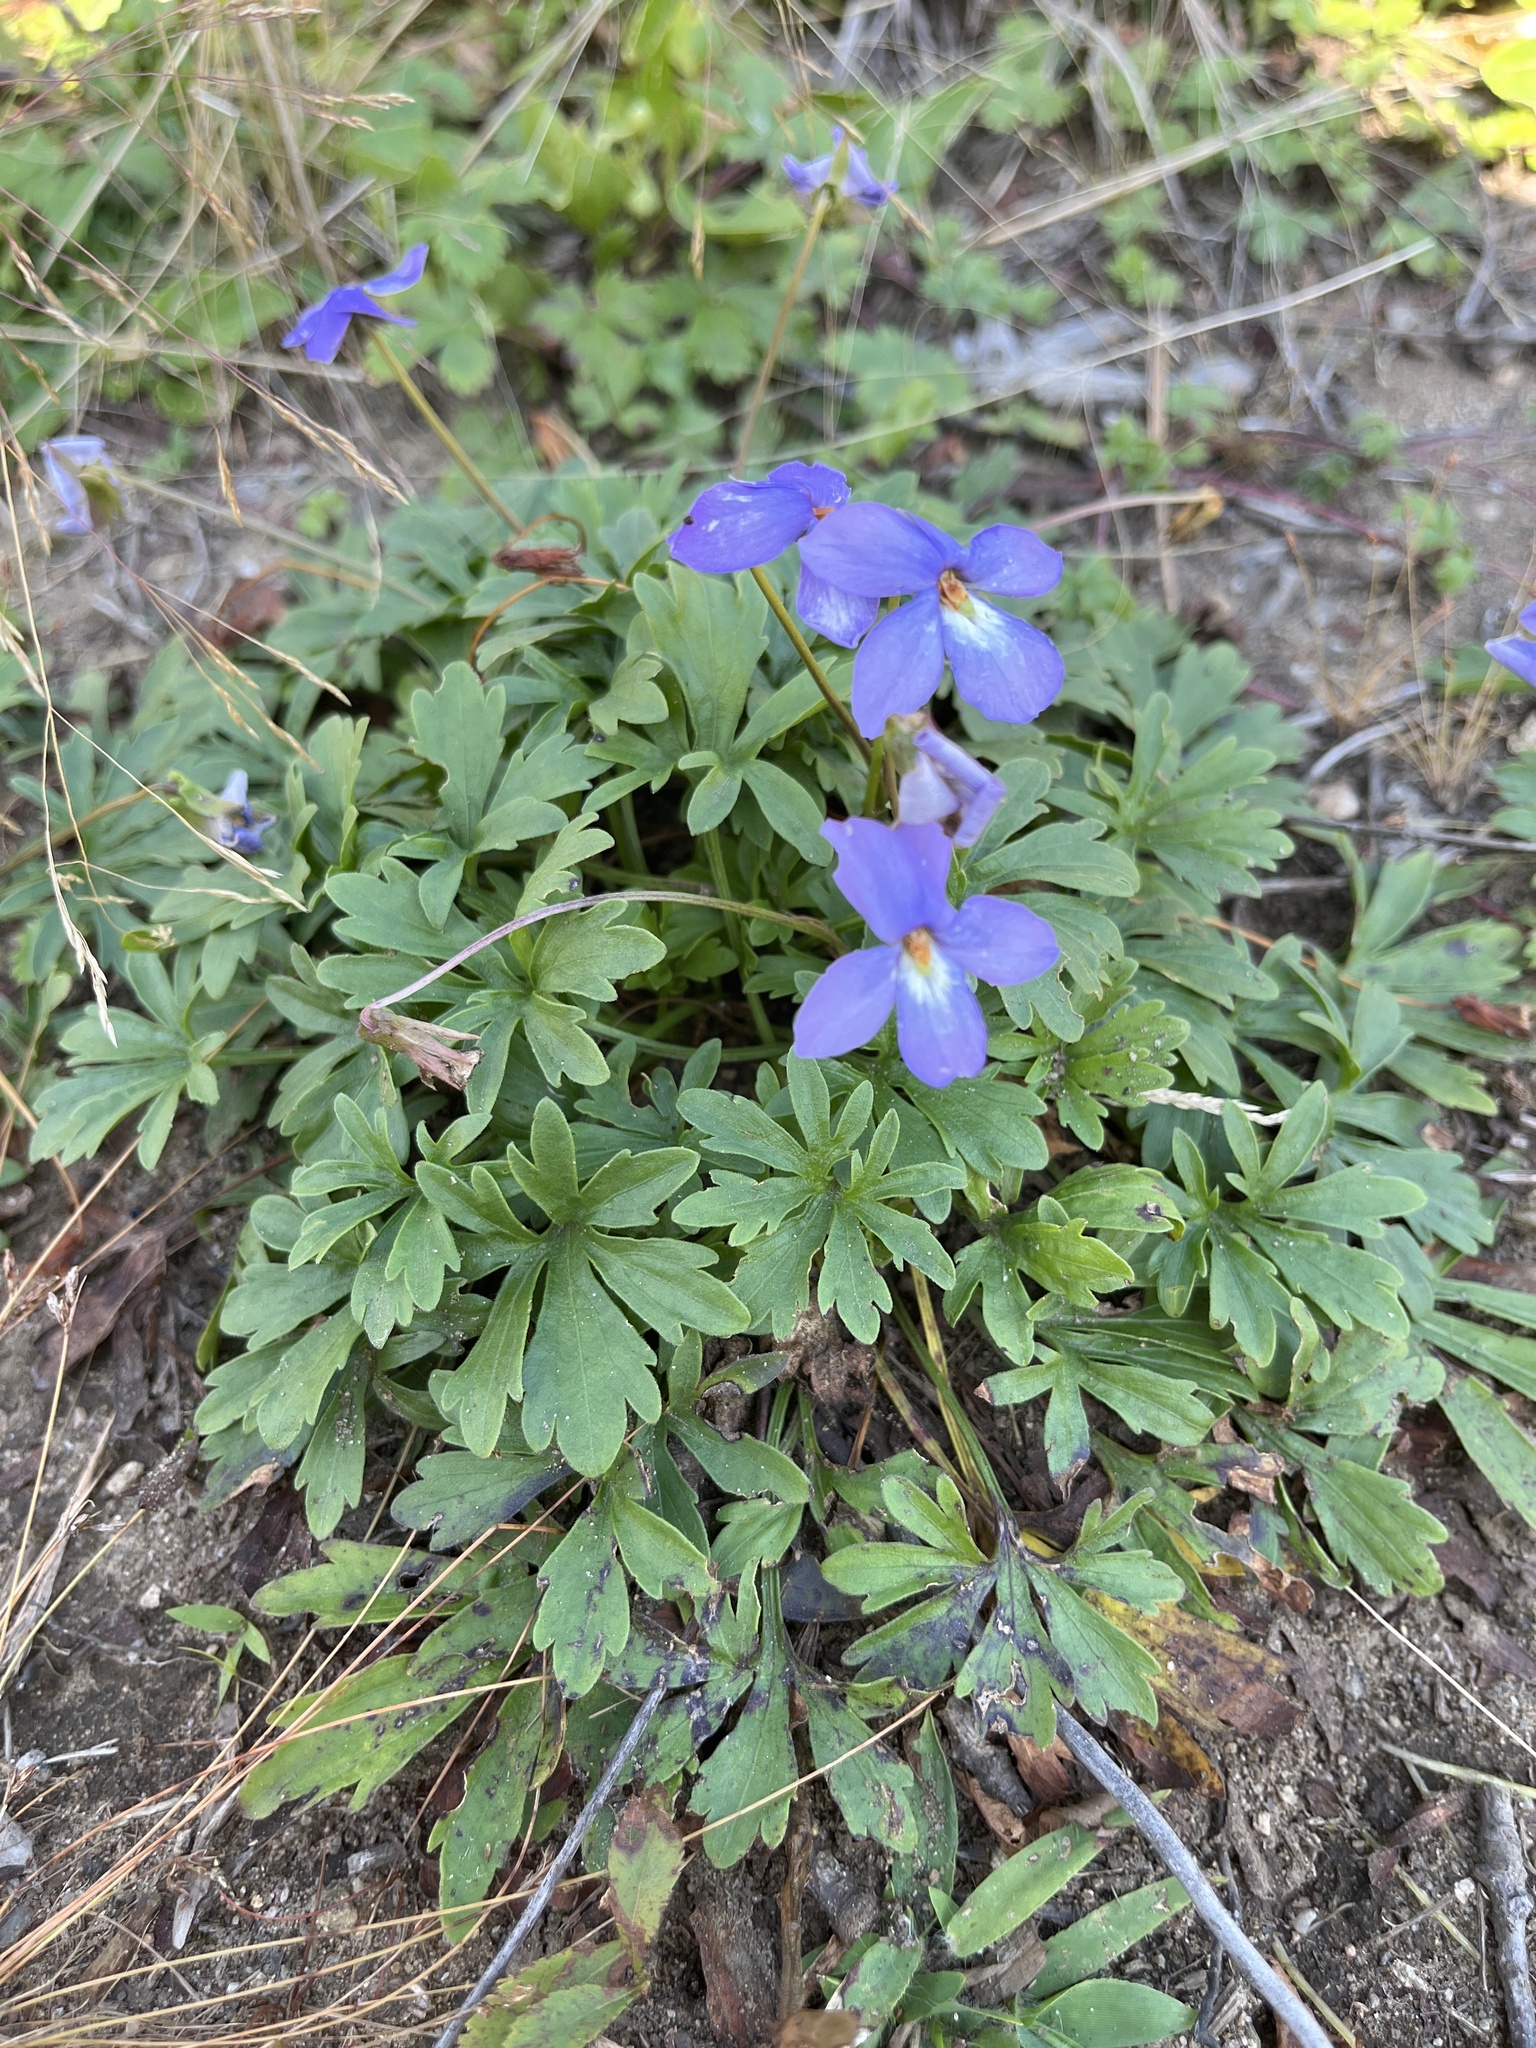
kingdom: Plantae
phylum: Tracheophyta
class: Magnoliopsida
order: Malpighiales
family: Violaceae
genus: Viola
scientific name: Viola pedata
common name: Pansy violet
